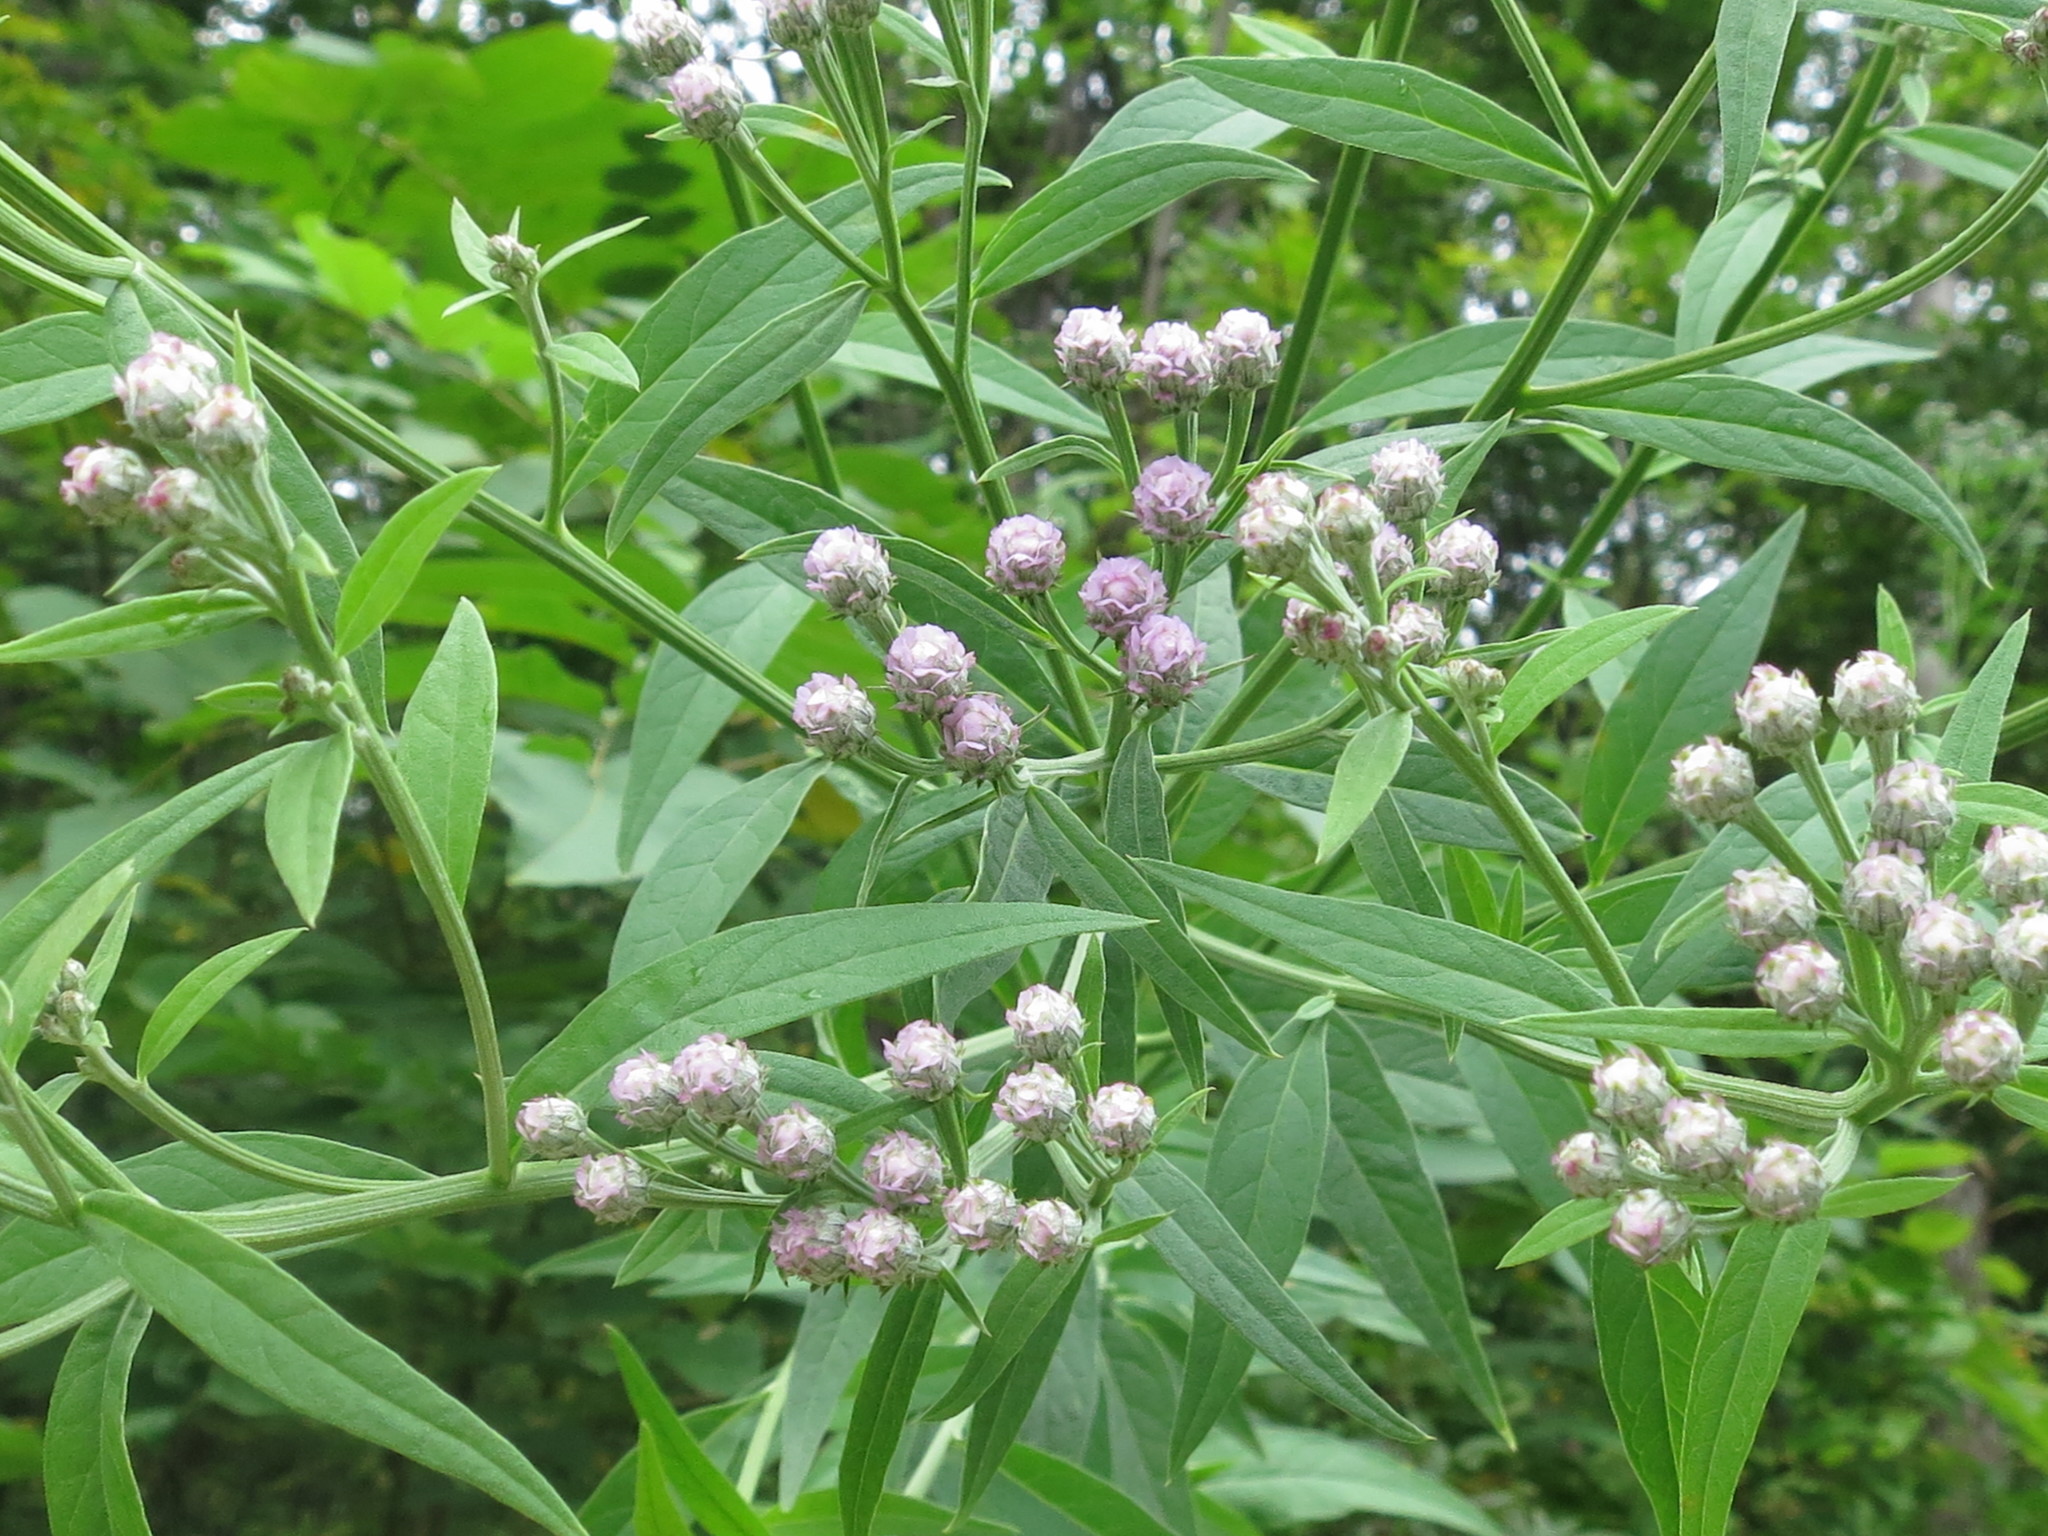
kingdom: Plantae
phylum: Tracheophyta
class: Magnoliopsida
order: Asterales
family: Asteraceae
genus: Saussurea
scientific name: Saussurea pulchella
